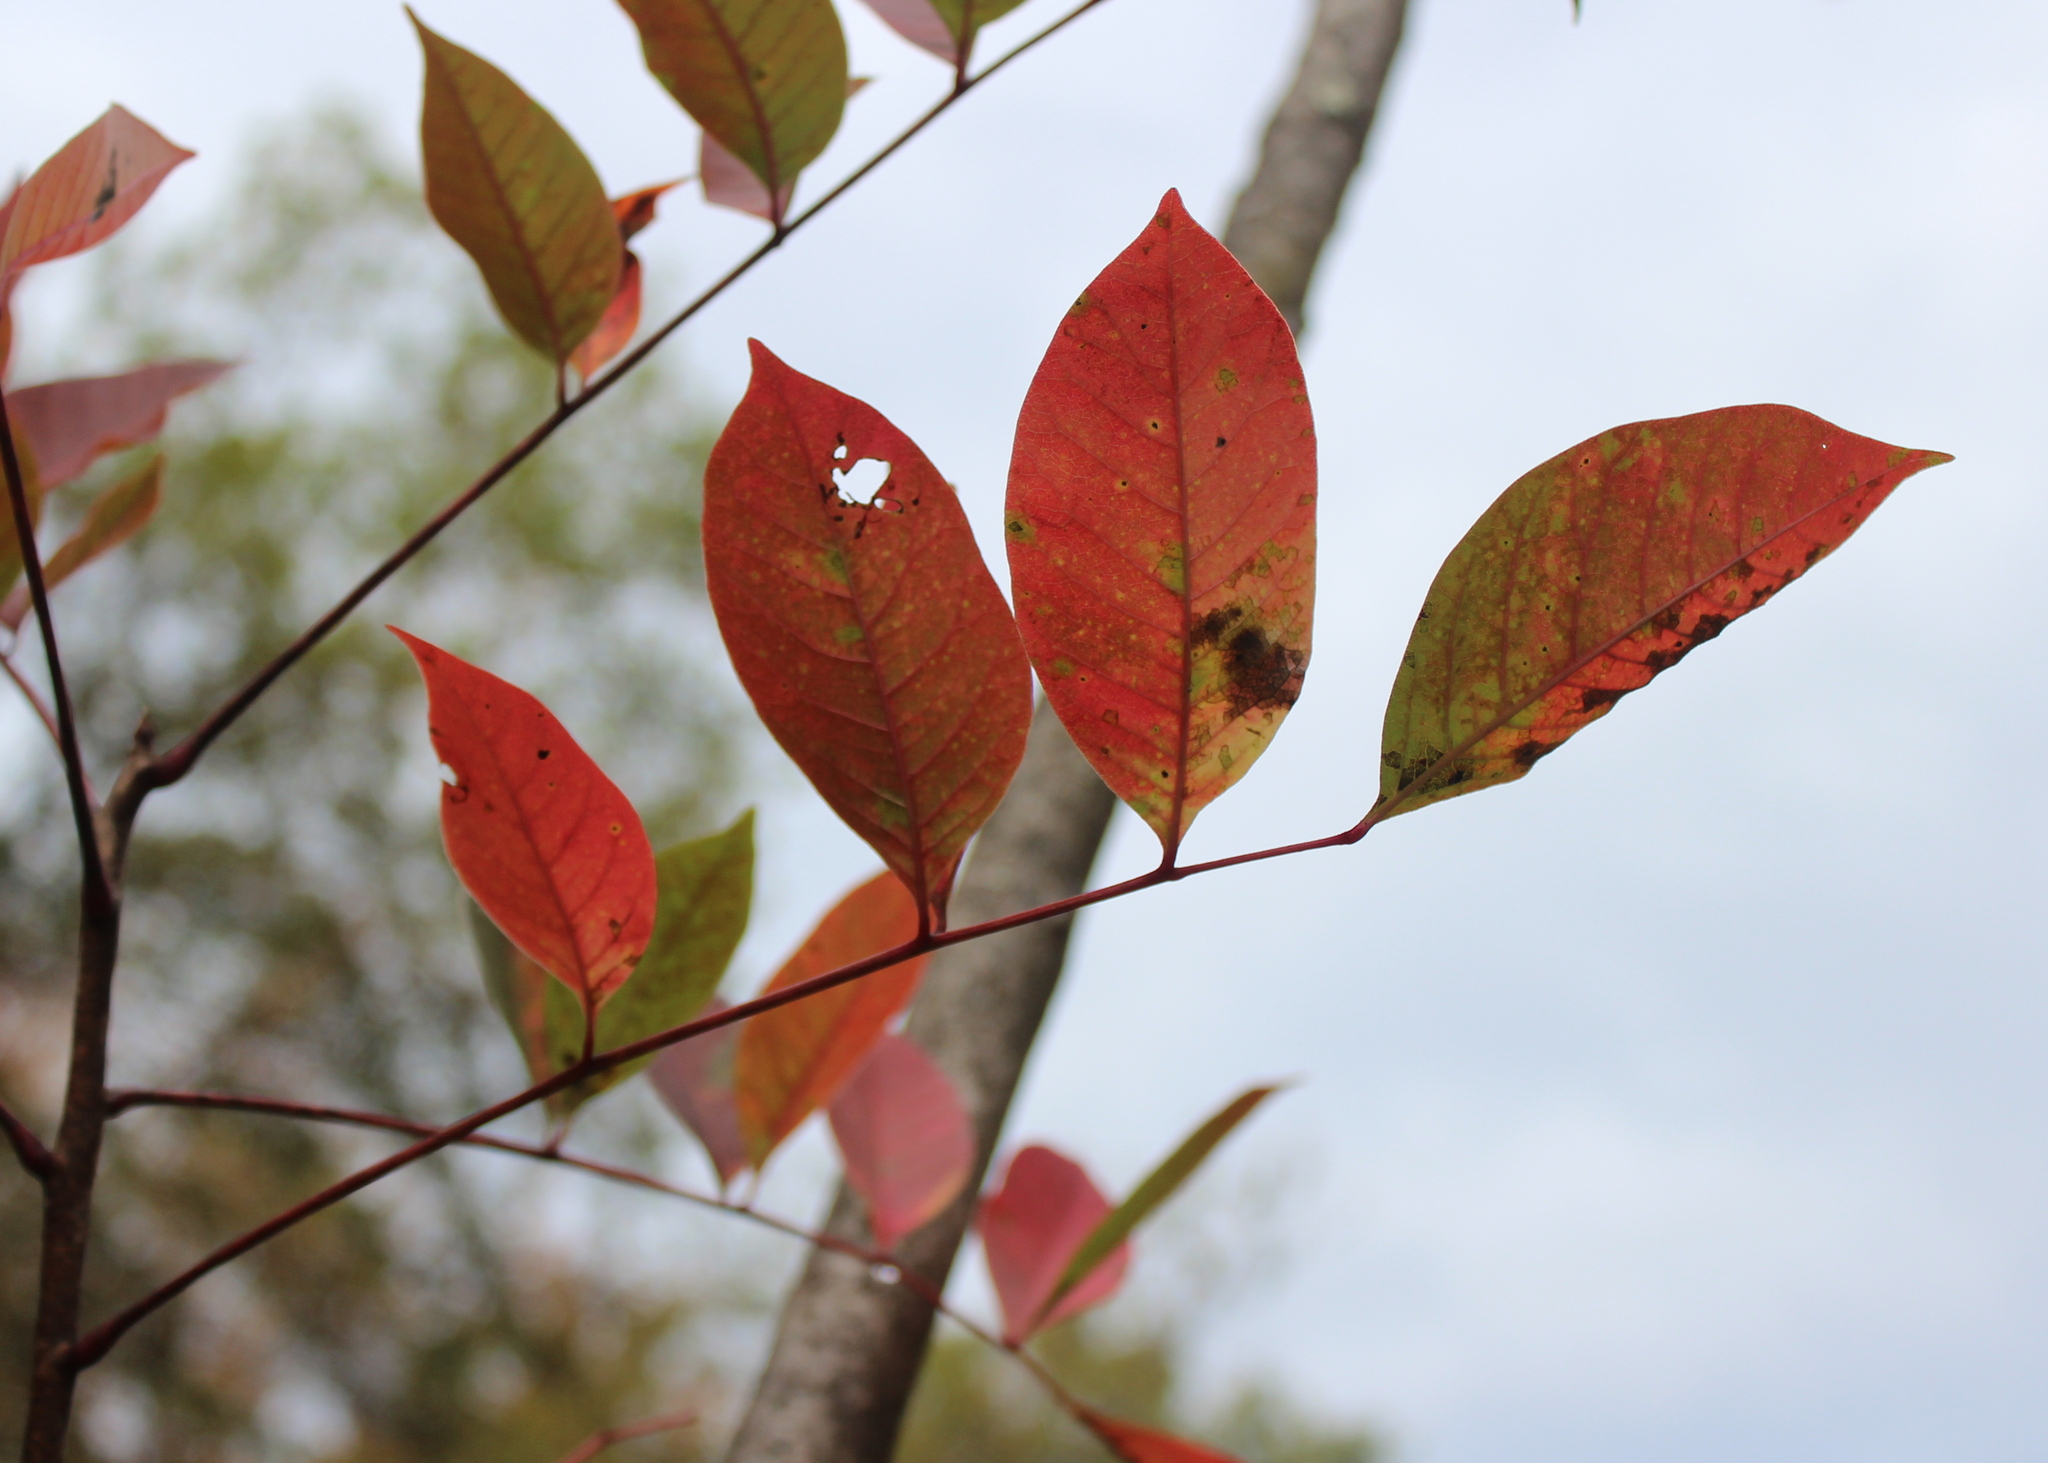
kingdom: Plantae
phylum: Tracheophyta
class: Magnoliopsida
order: Sapindales
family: Anacardiaceae
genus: Toxicodendron
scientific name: Toxicodendron vernix
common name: Poison sumac
